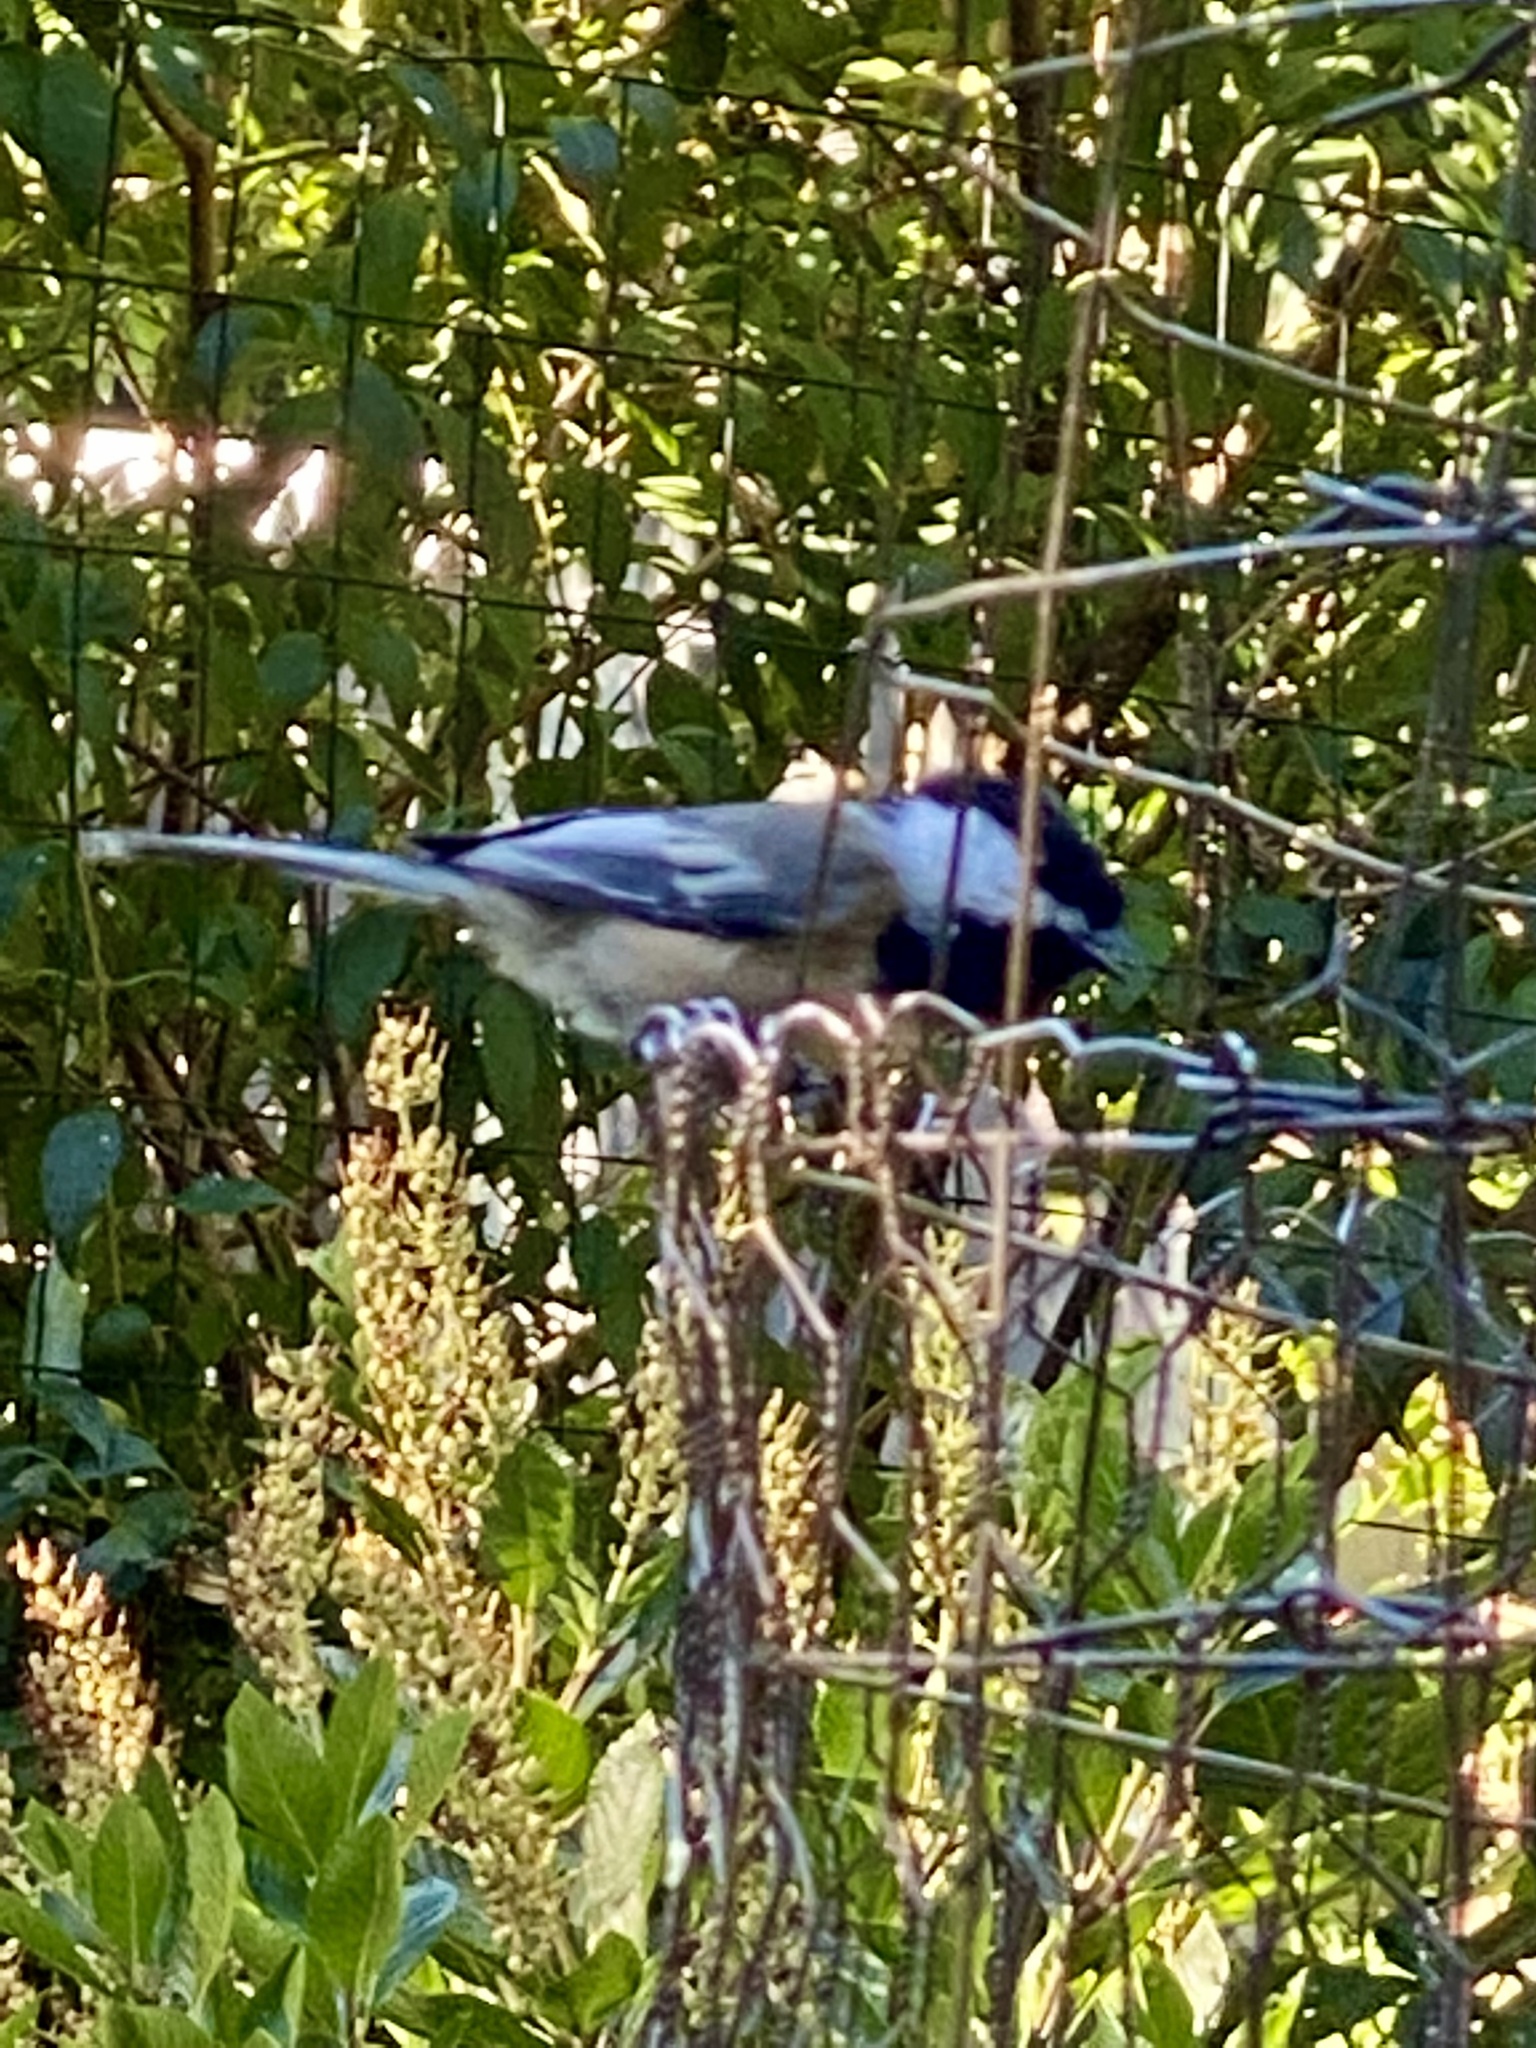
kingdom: Animalia
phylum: Chordata
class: Aves
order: Passeriformes
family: Paridae
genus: Poecile
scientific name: Poecile atricapillus
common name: Black-capped chickadee
